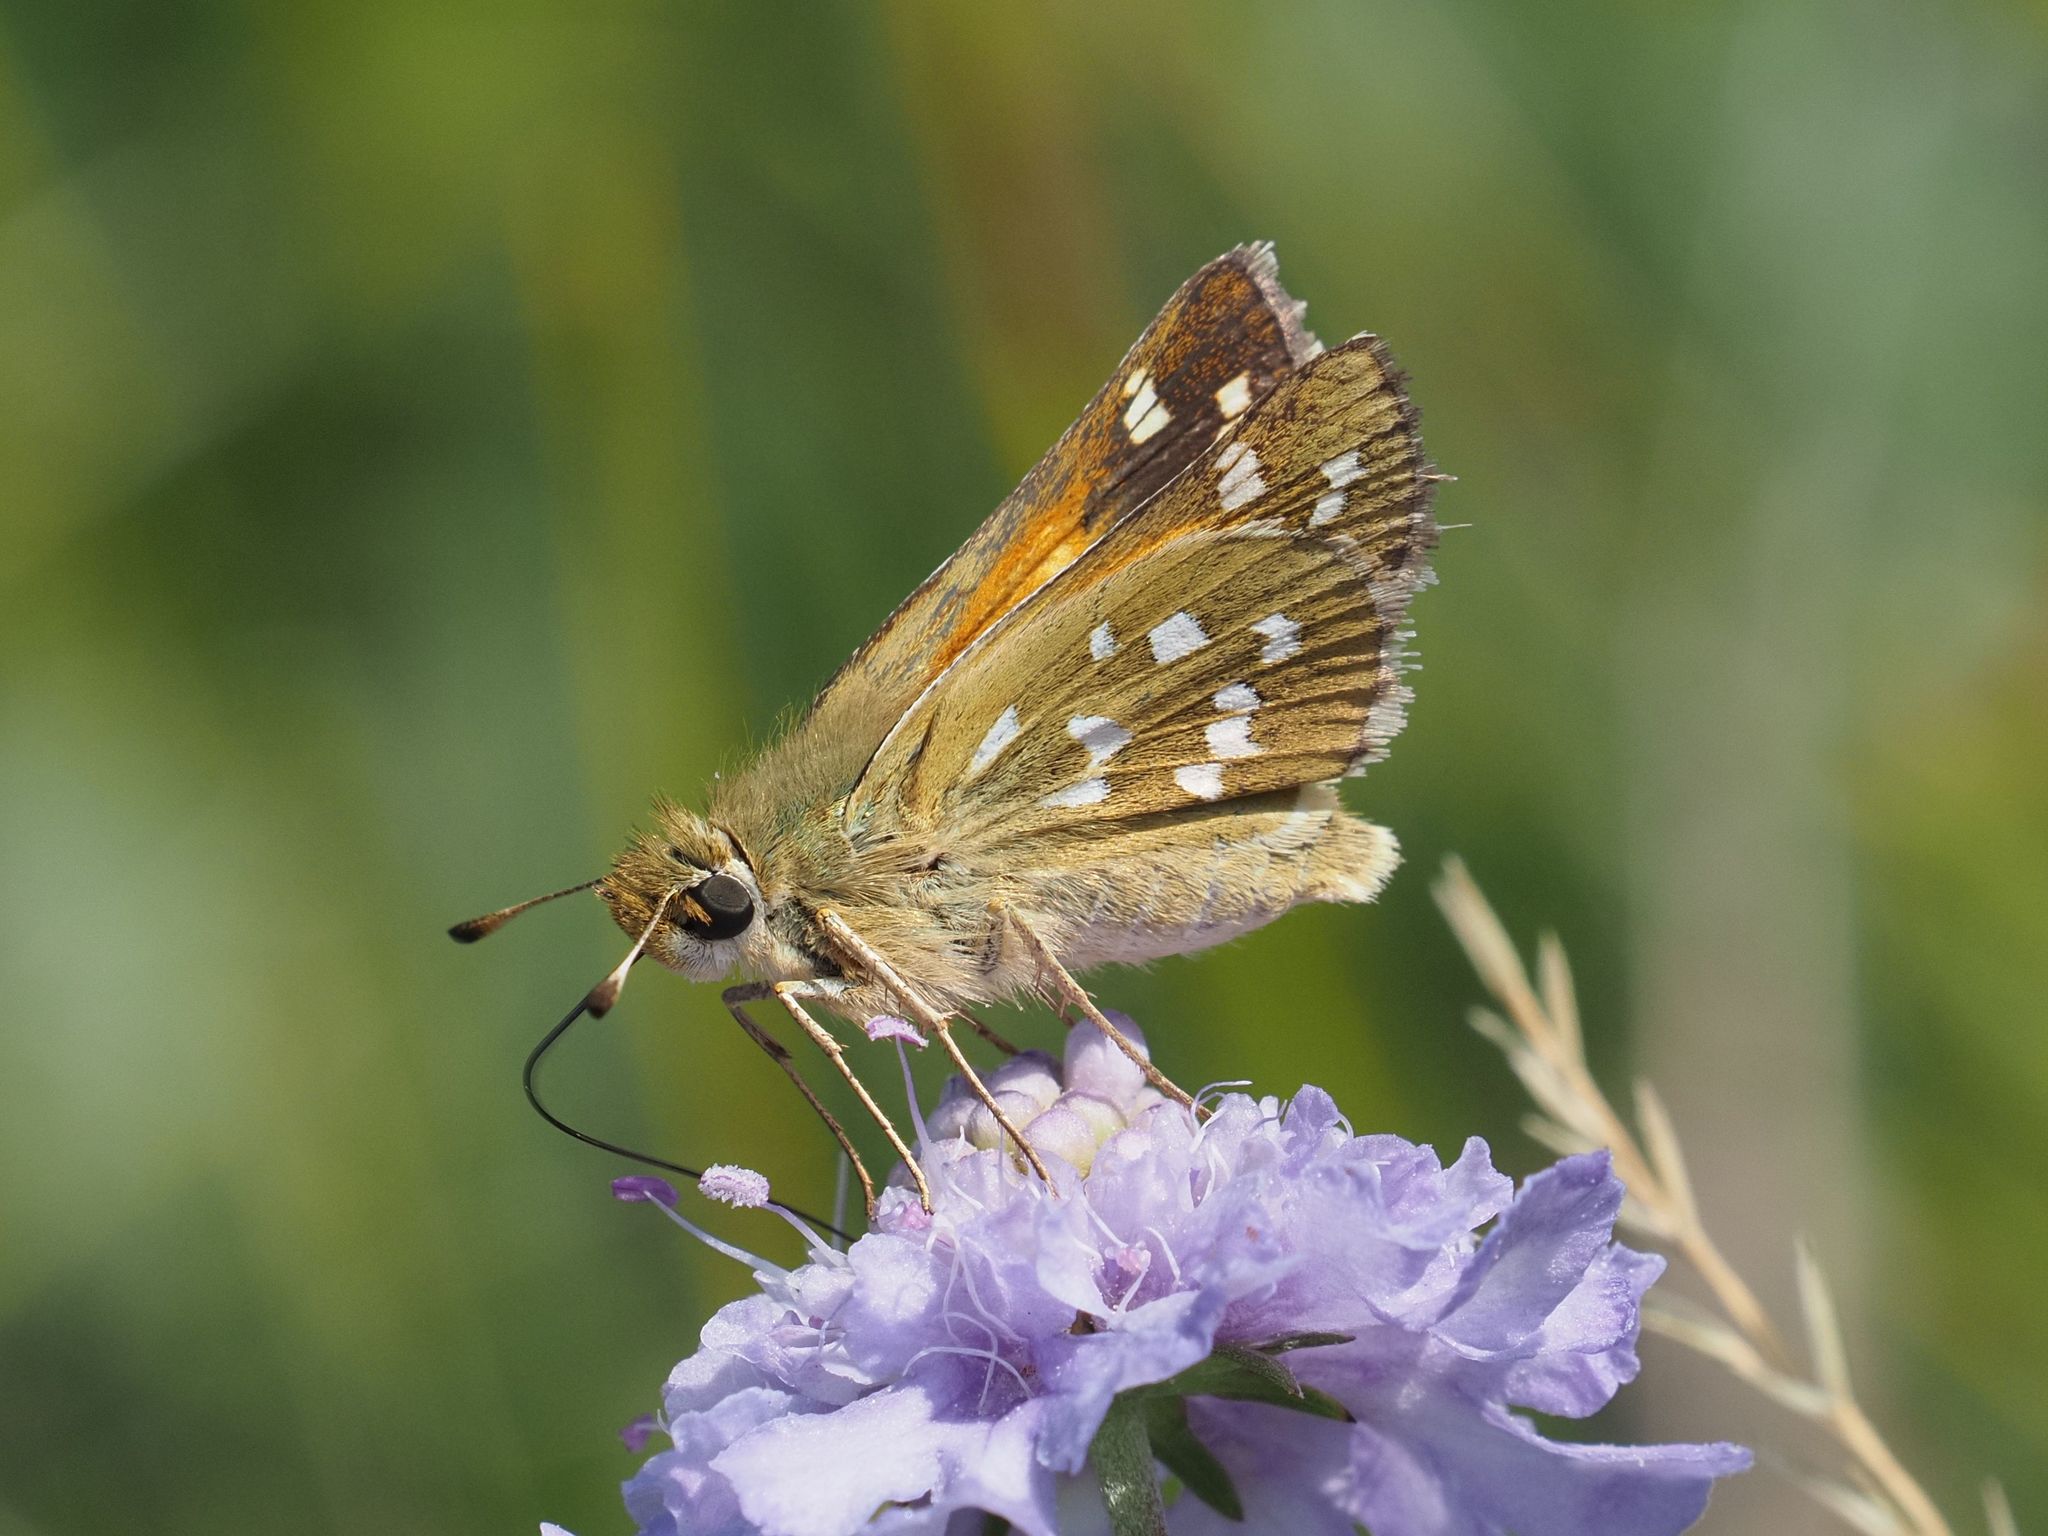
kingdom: Animalia
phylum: Arthropoda
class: Insecta
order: Lepidoptera
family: Hesperiidae
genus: Hesperia
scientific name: Hesperia comma
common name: Common branded skipper
